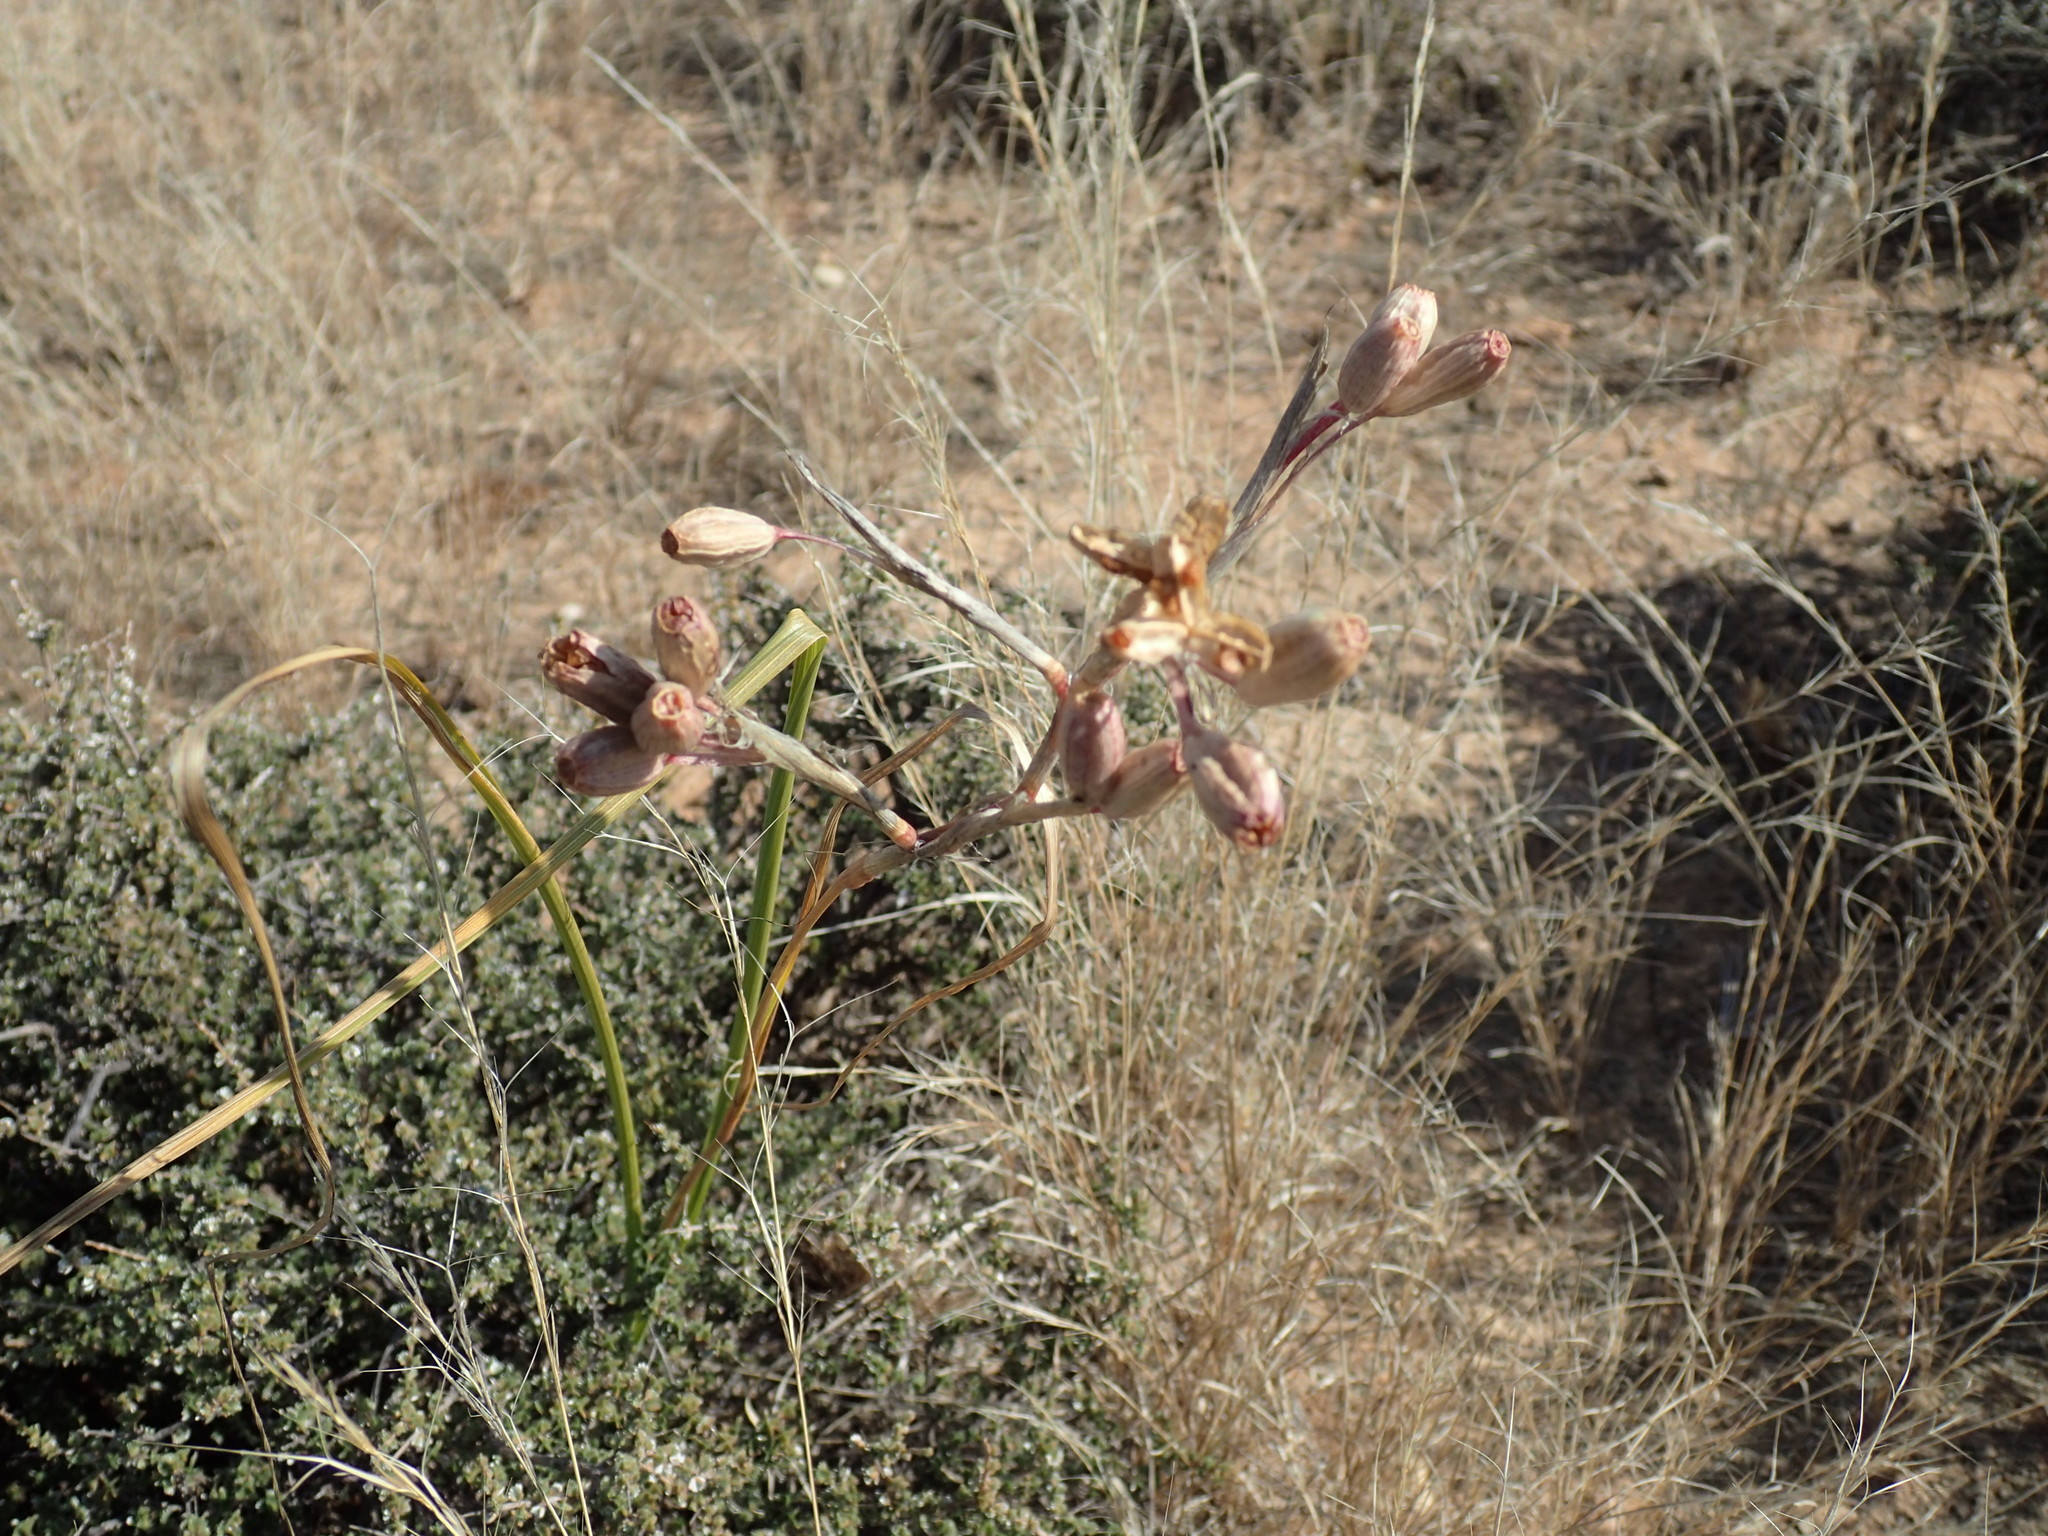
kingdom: Plantae
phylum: Tracheophyta
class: Liliopsida
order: Asparagales
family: Iridaceae
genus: Moraea
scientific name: Moraea polystachya
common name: Blue-tulip
